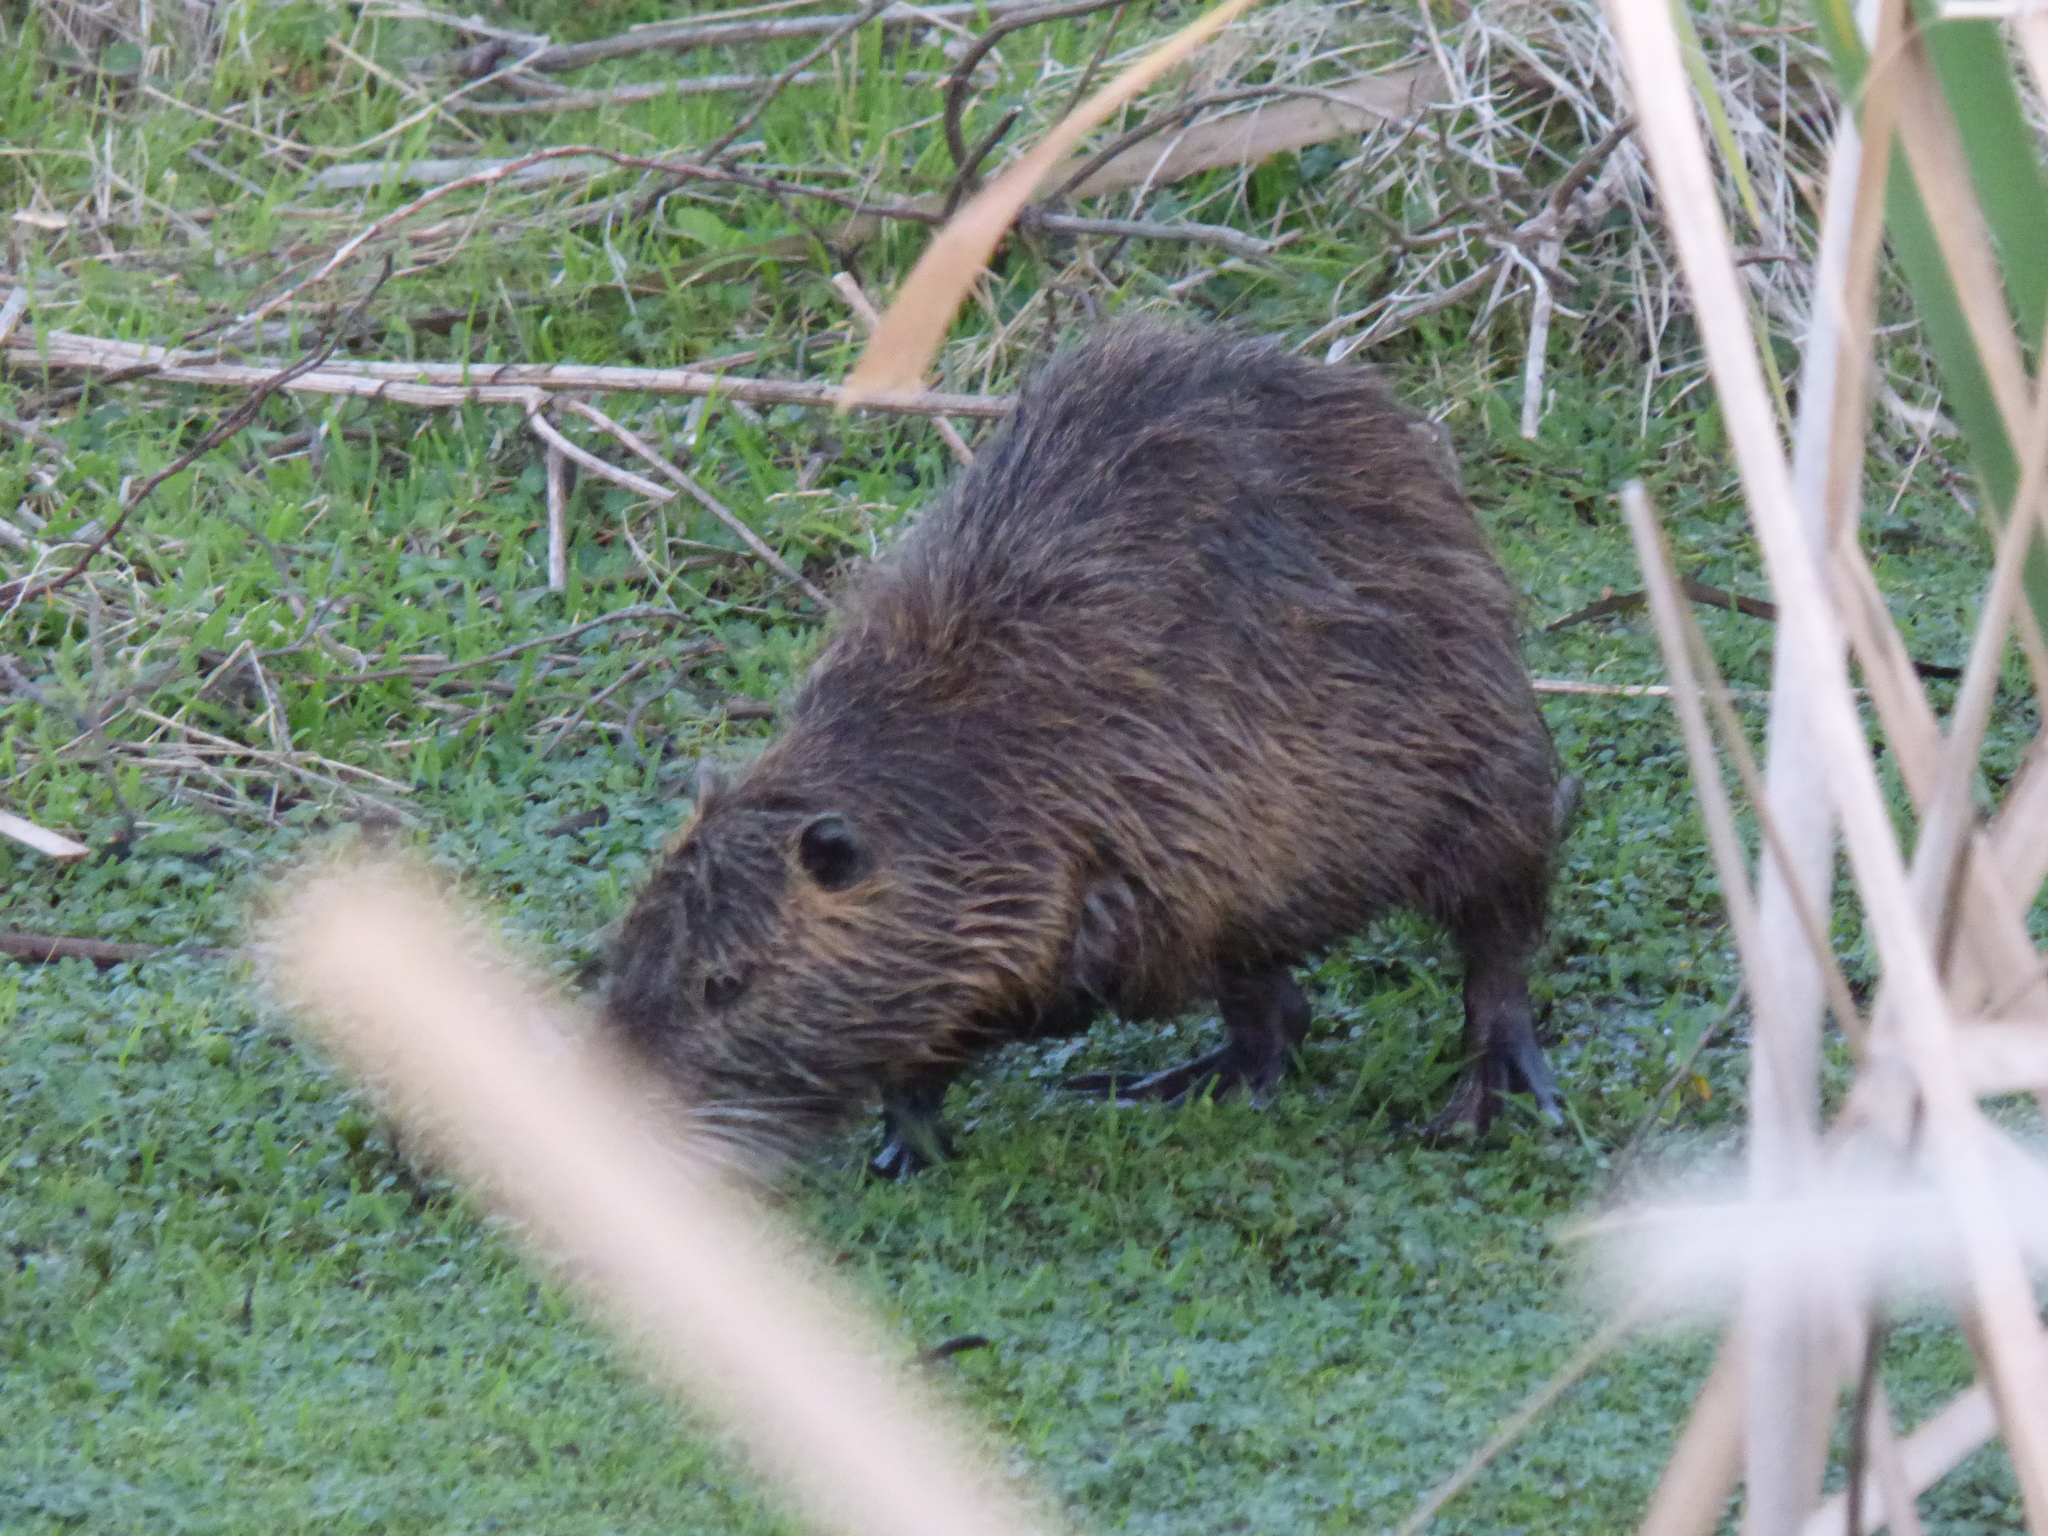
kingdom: Animalia
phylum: Chordata
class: Mammalia
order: Rodentia
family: Myocastoridae
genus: Myocastor
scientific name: Myocastor coypus
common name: Coypu
